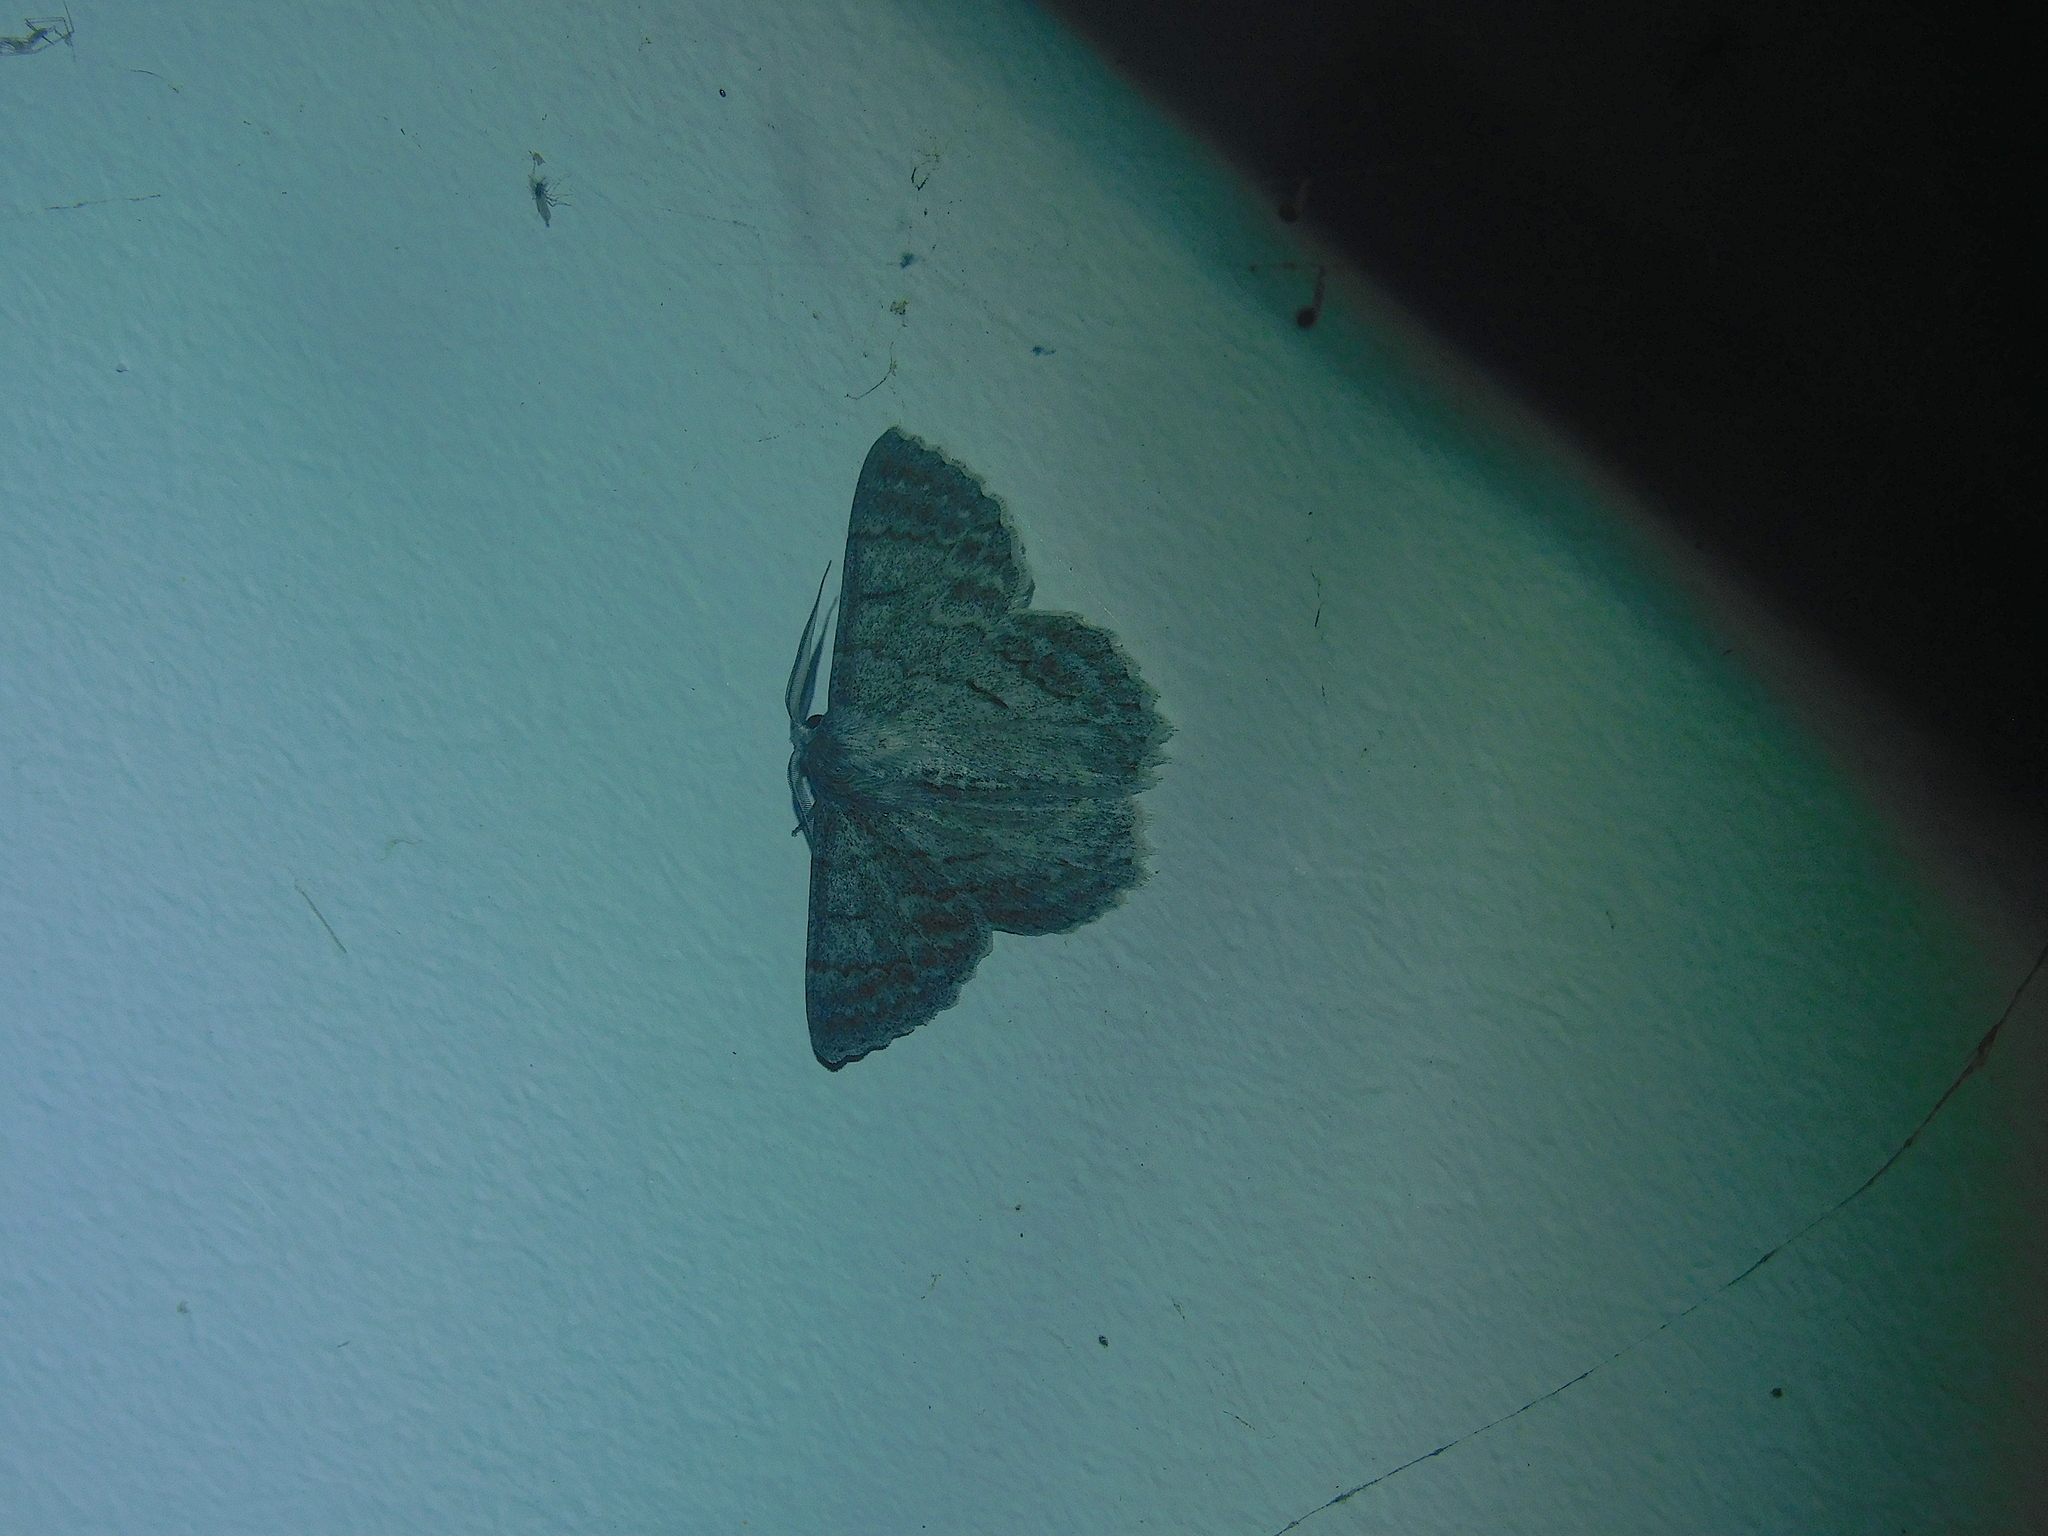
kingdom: Animalia
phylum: Arthropoda
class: Insecta
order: Lepidoptera
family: Geometridae
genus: Crypsiphona
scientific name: Crypsiphona
